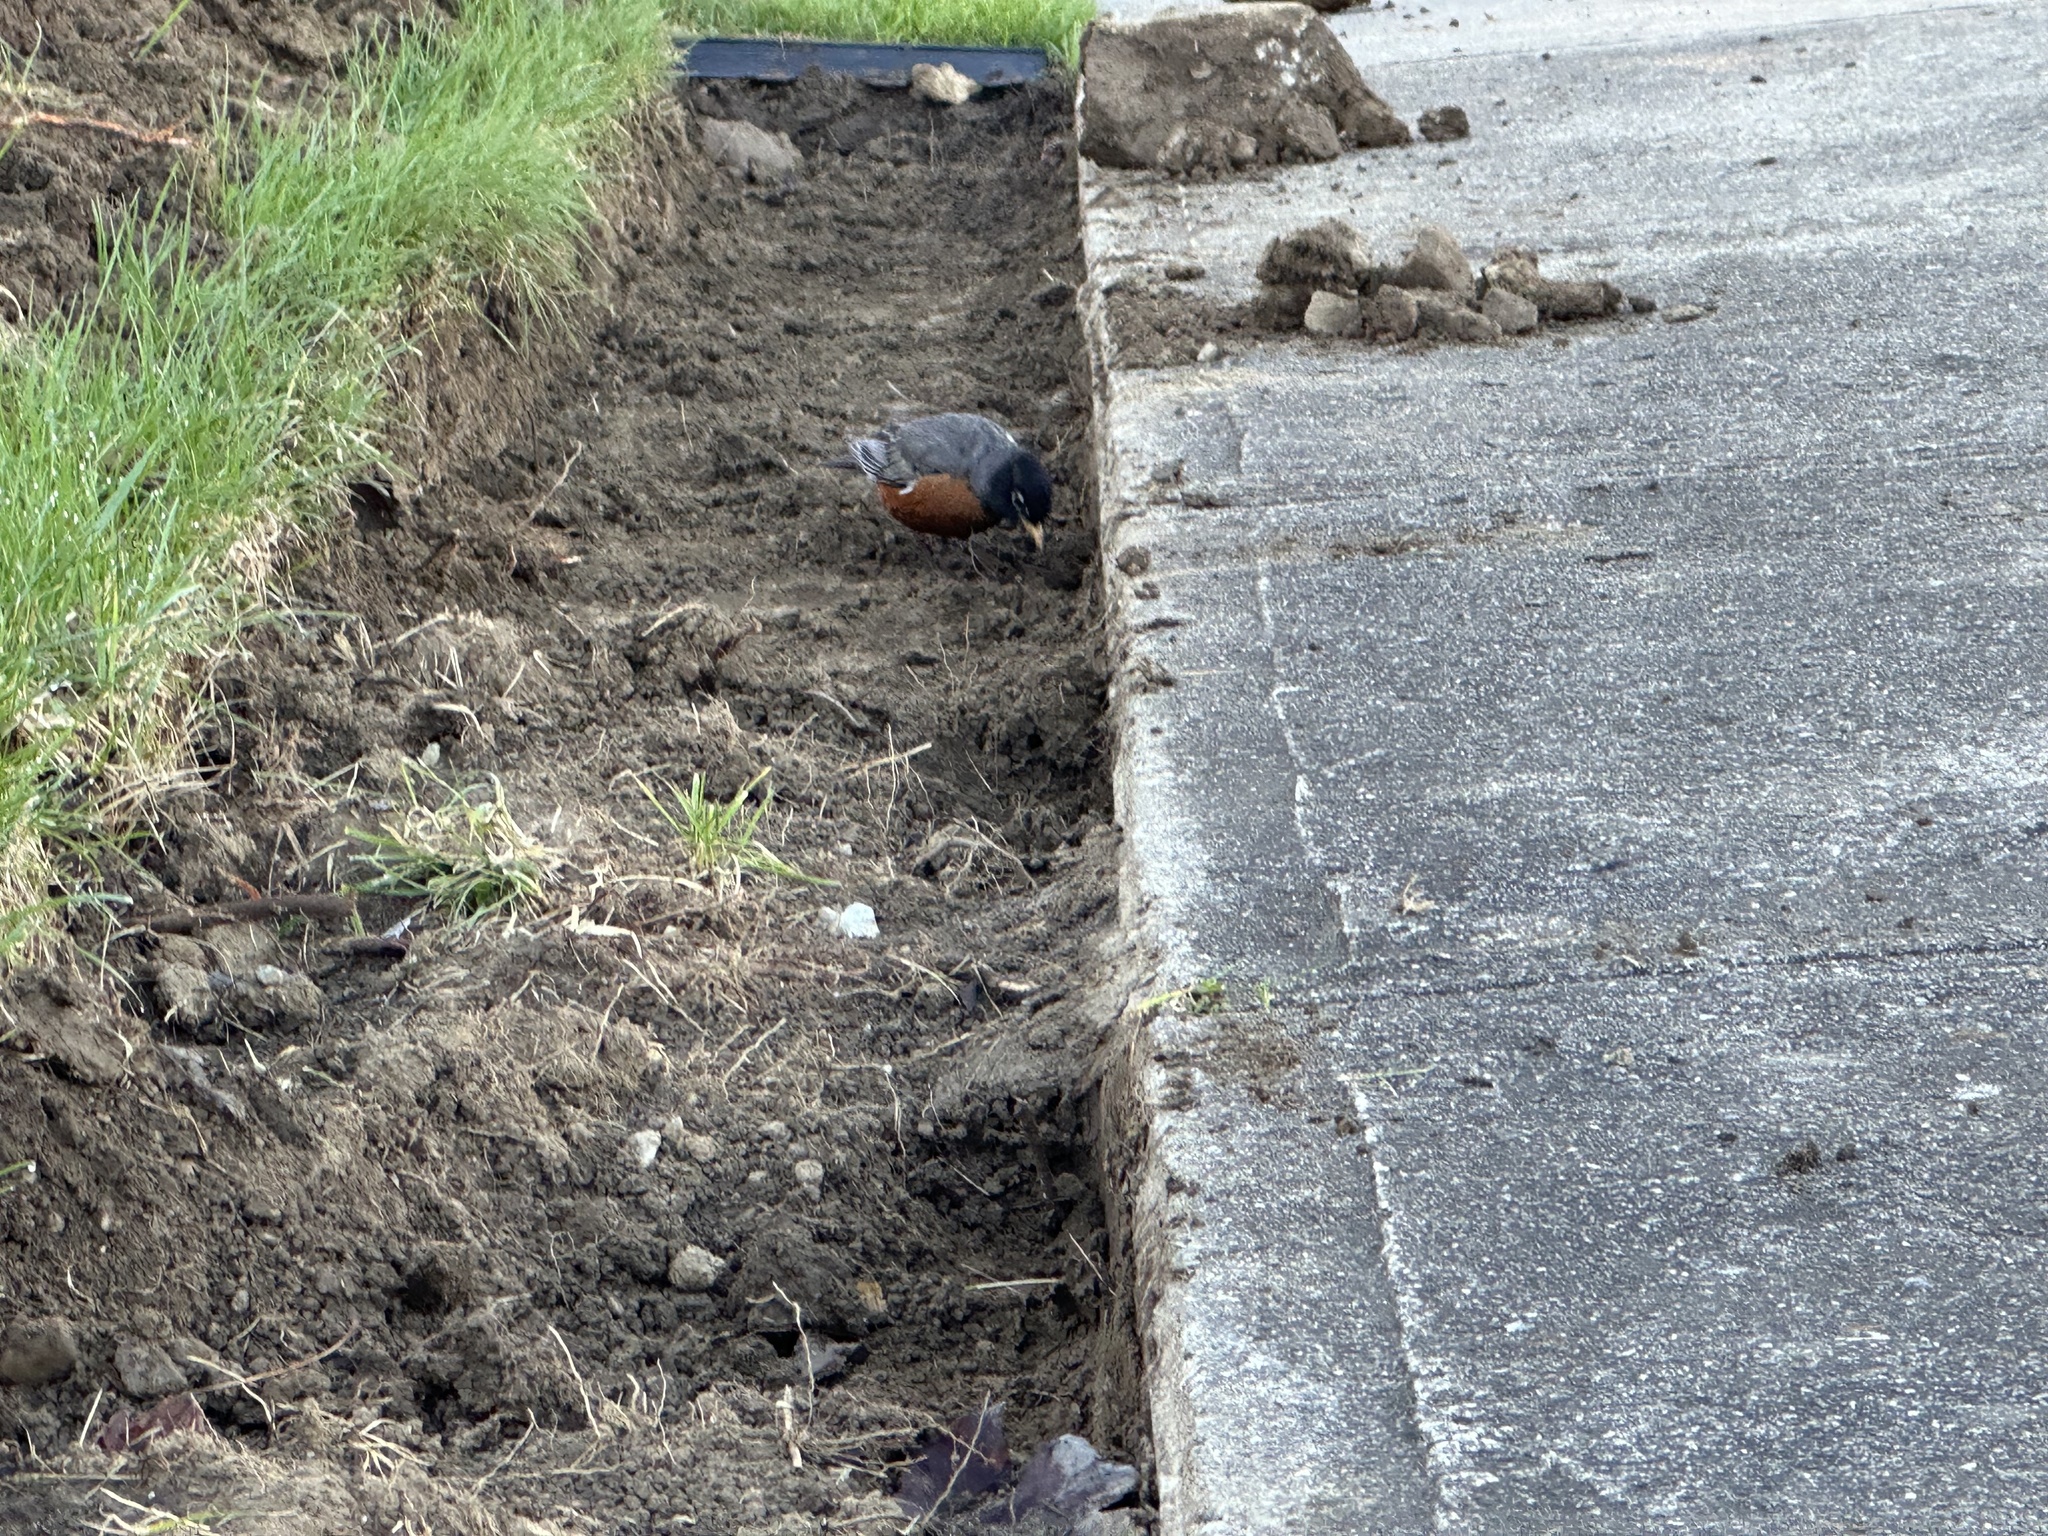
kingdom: Animalia
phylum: Chordata
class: Aves
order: Passeriformes
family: Turdidae
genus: Turdus
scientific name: Turdus migratorius
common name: American robin
